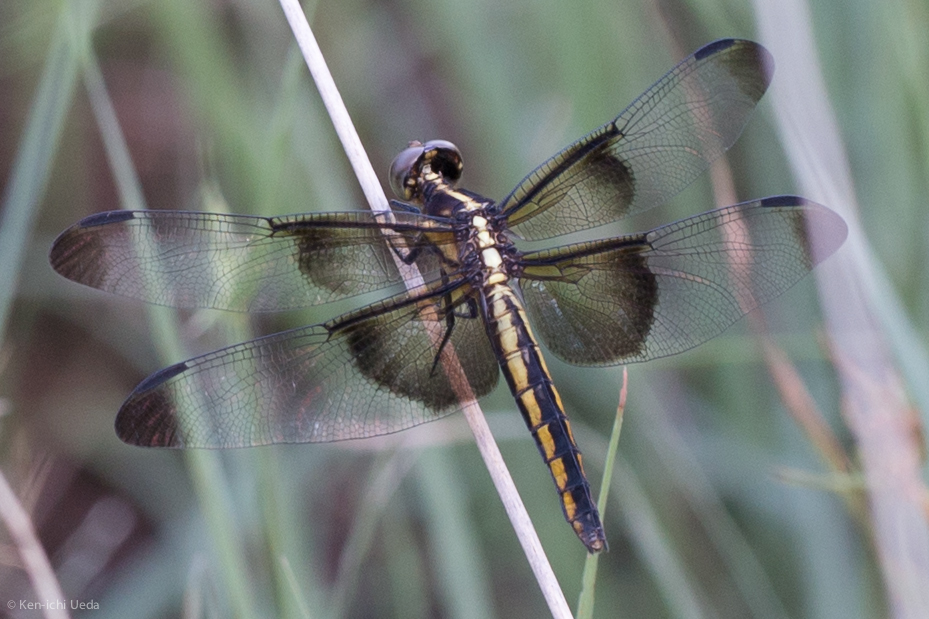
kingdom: Animalia
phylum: Arthropoda
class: Insecta
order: Odonata
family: Libellulidae
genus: Libellula
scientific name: Libellula luctuosa
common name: Widow skimmer
